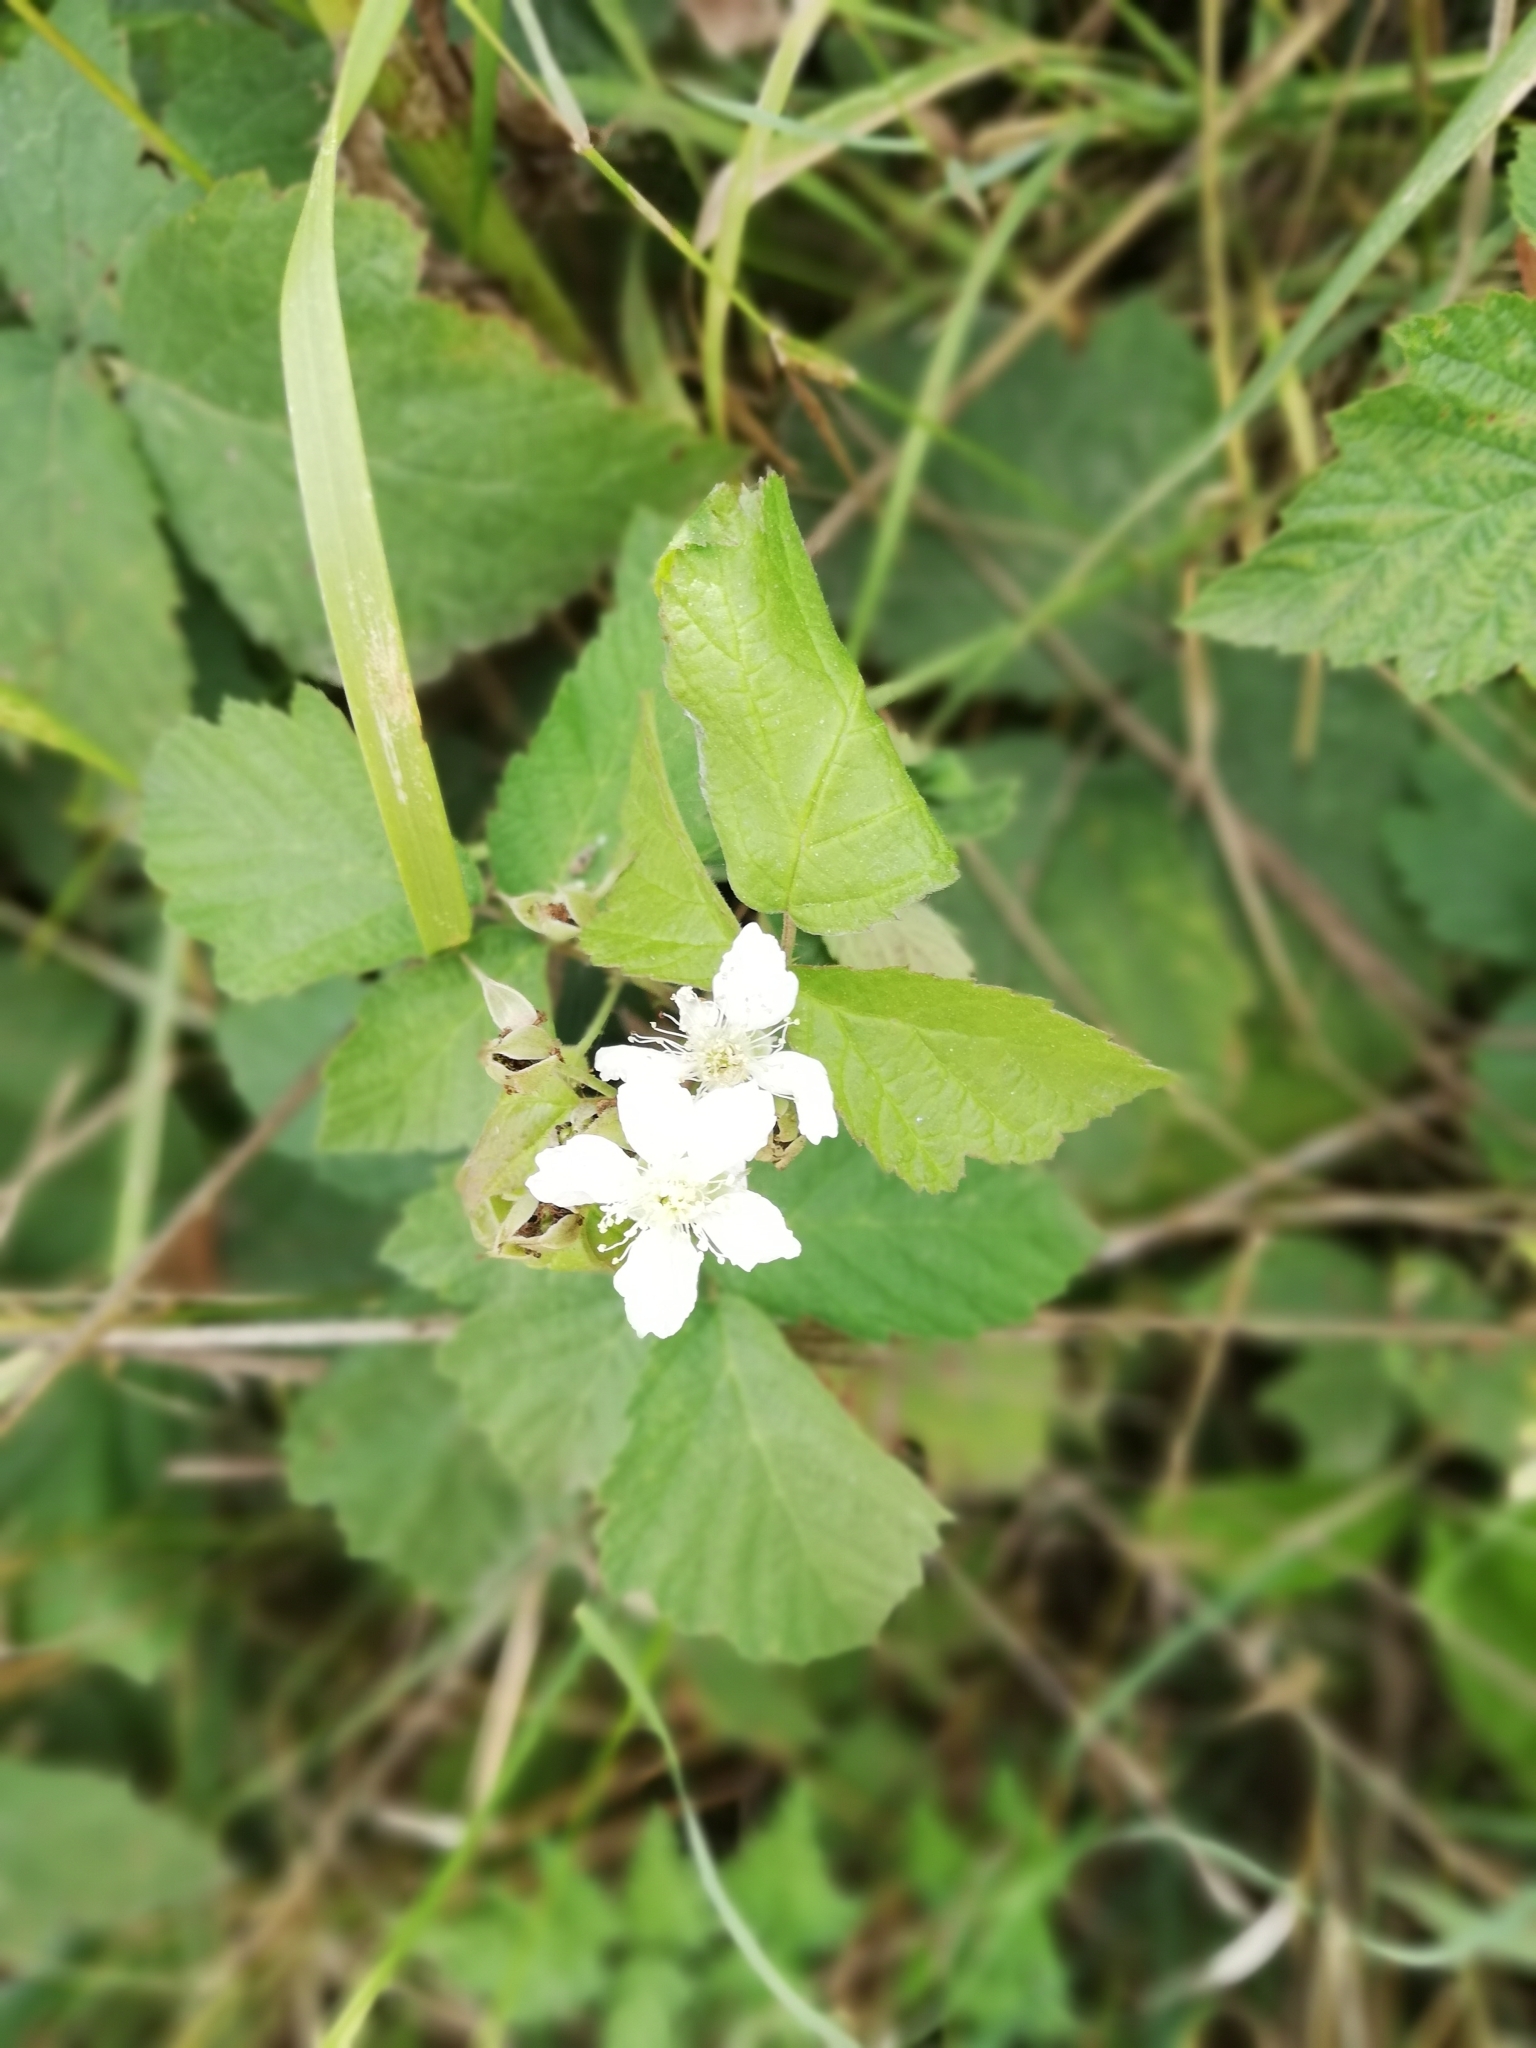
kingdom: Plantae
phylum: Tracheophyta
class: Magnoliopsida
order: Rosales
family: Rosaceae
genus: Rubus
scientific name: Rubus caesius
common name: Dewberry
